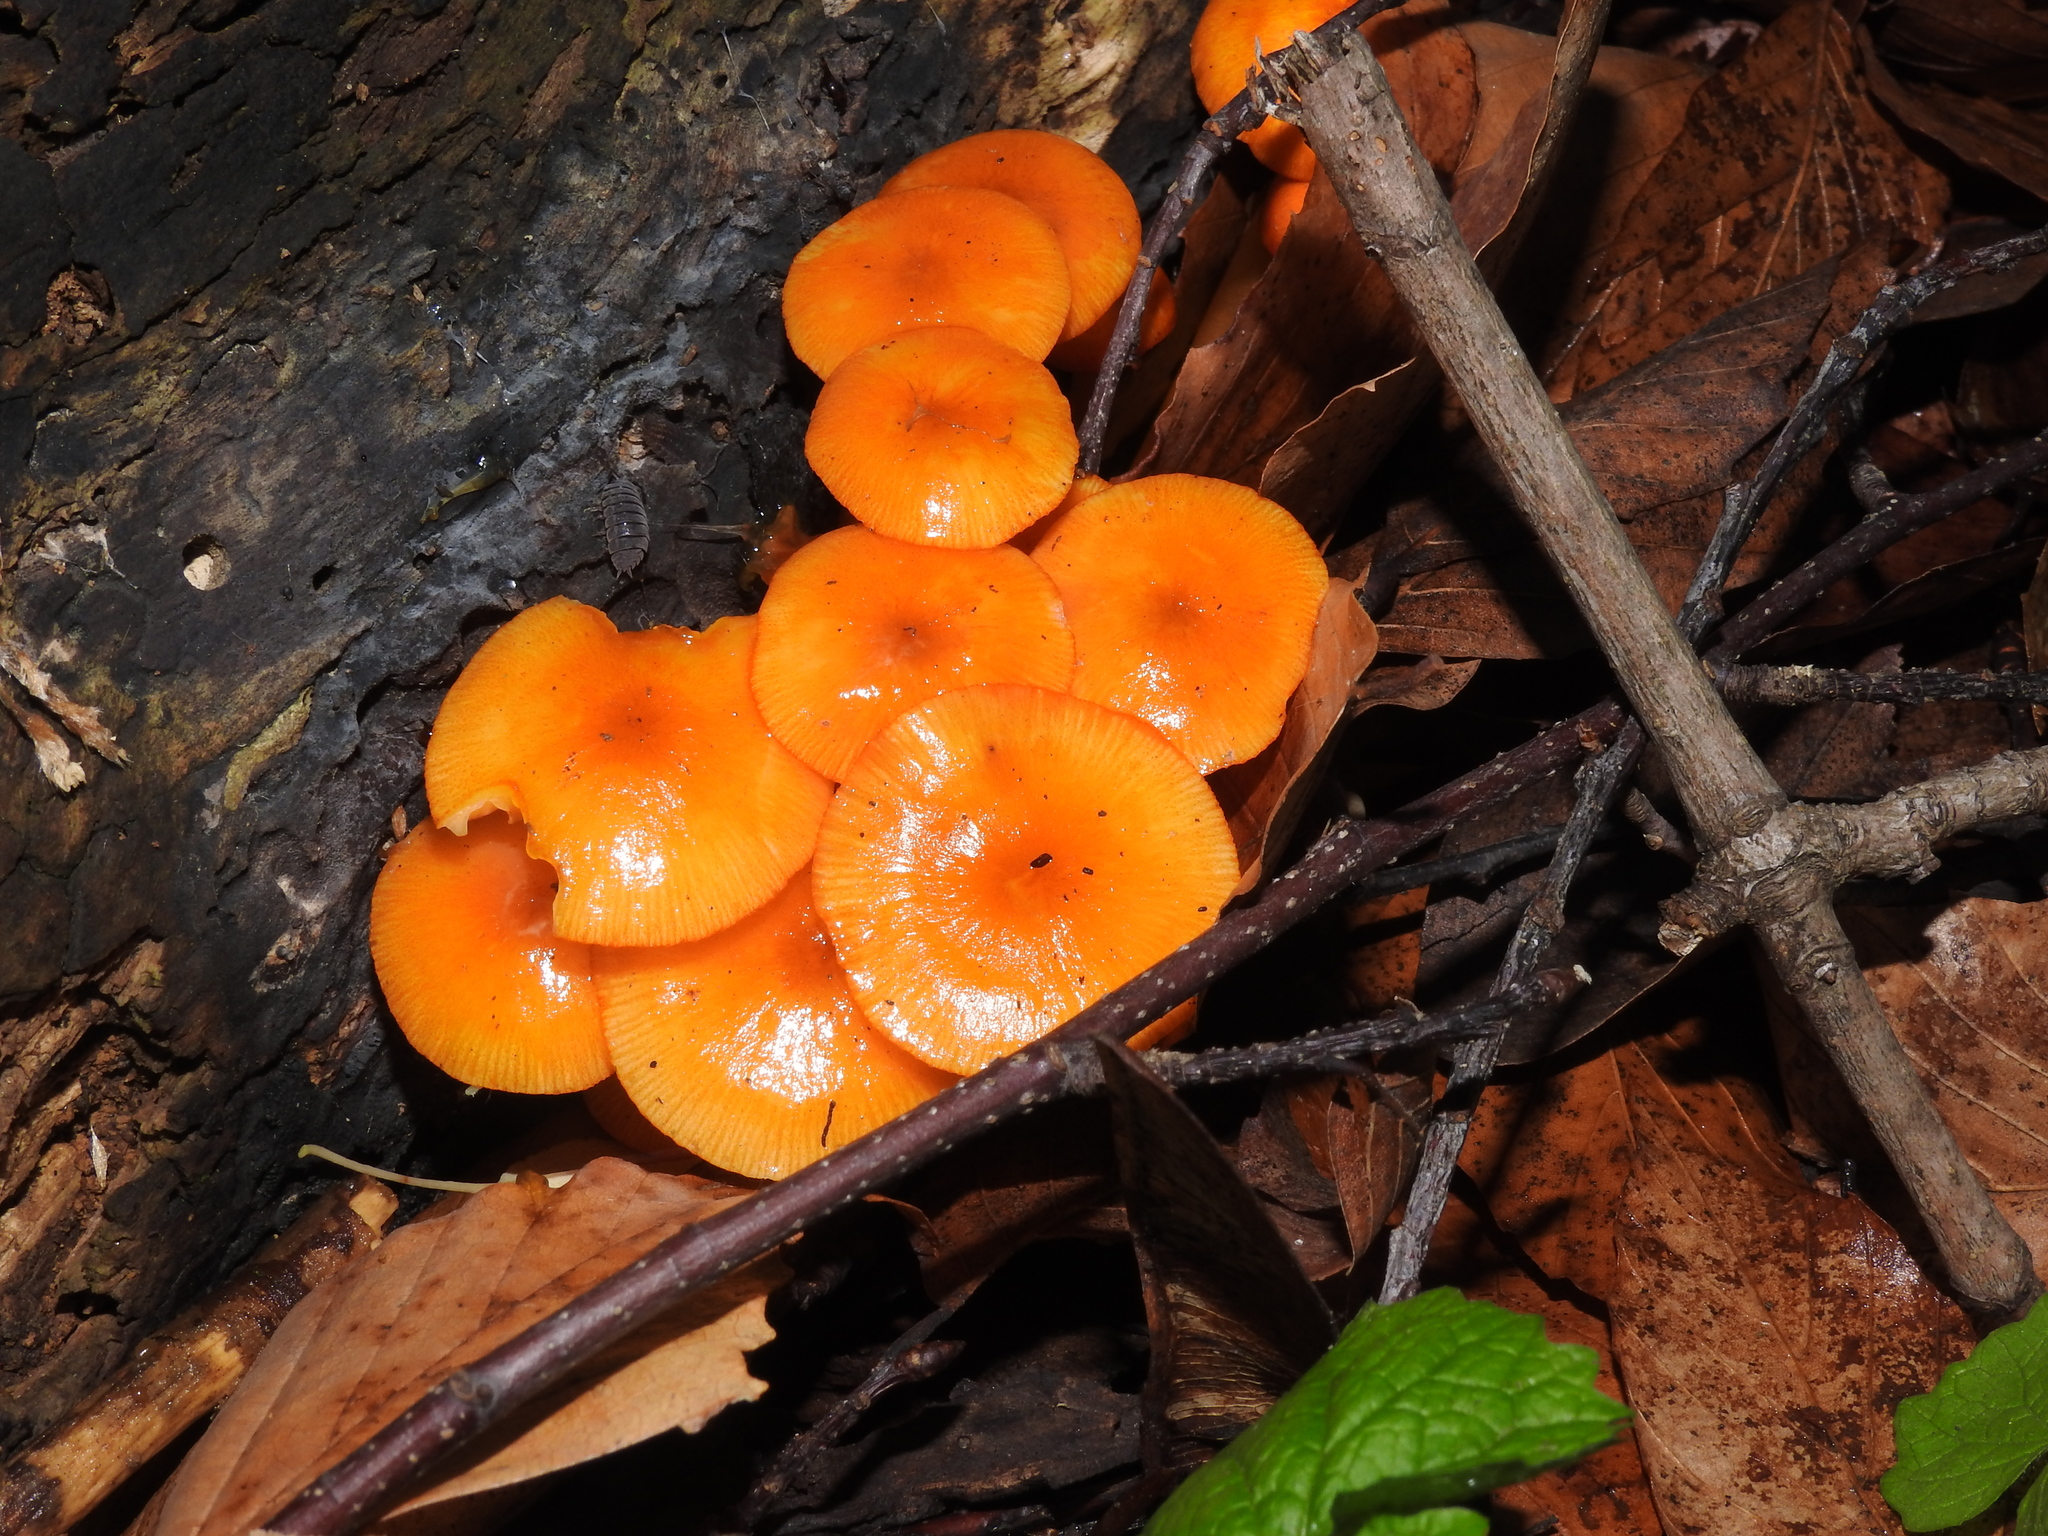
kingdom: Fungi
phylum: Basidiomycota
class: Agaricomycetes
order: Agaricales
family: Mycenaceae
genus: Mycena
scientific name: Mycena leaiana
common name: Orange mycena
